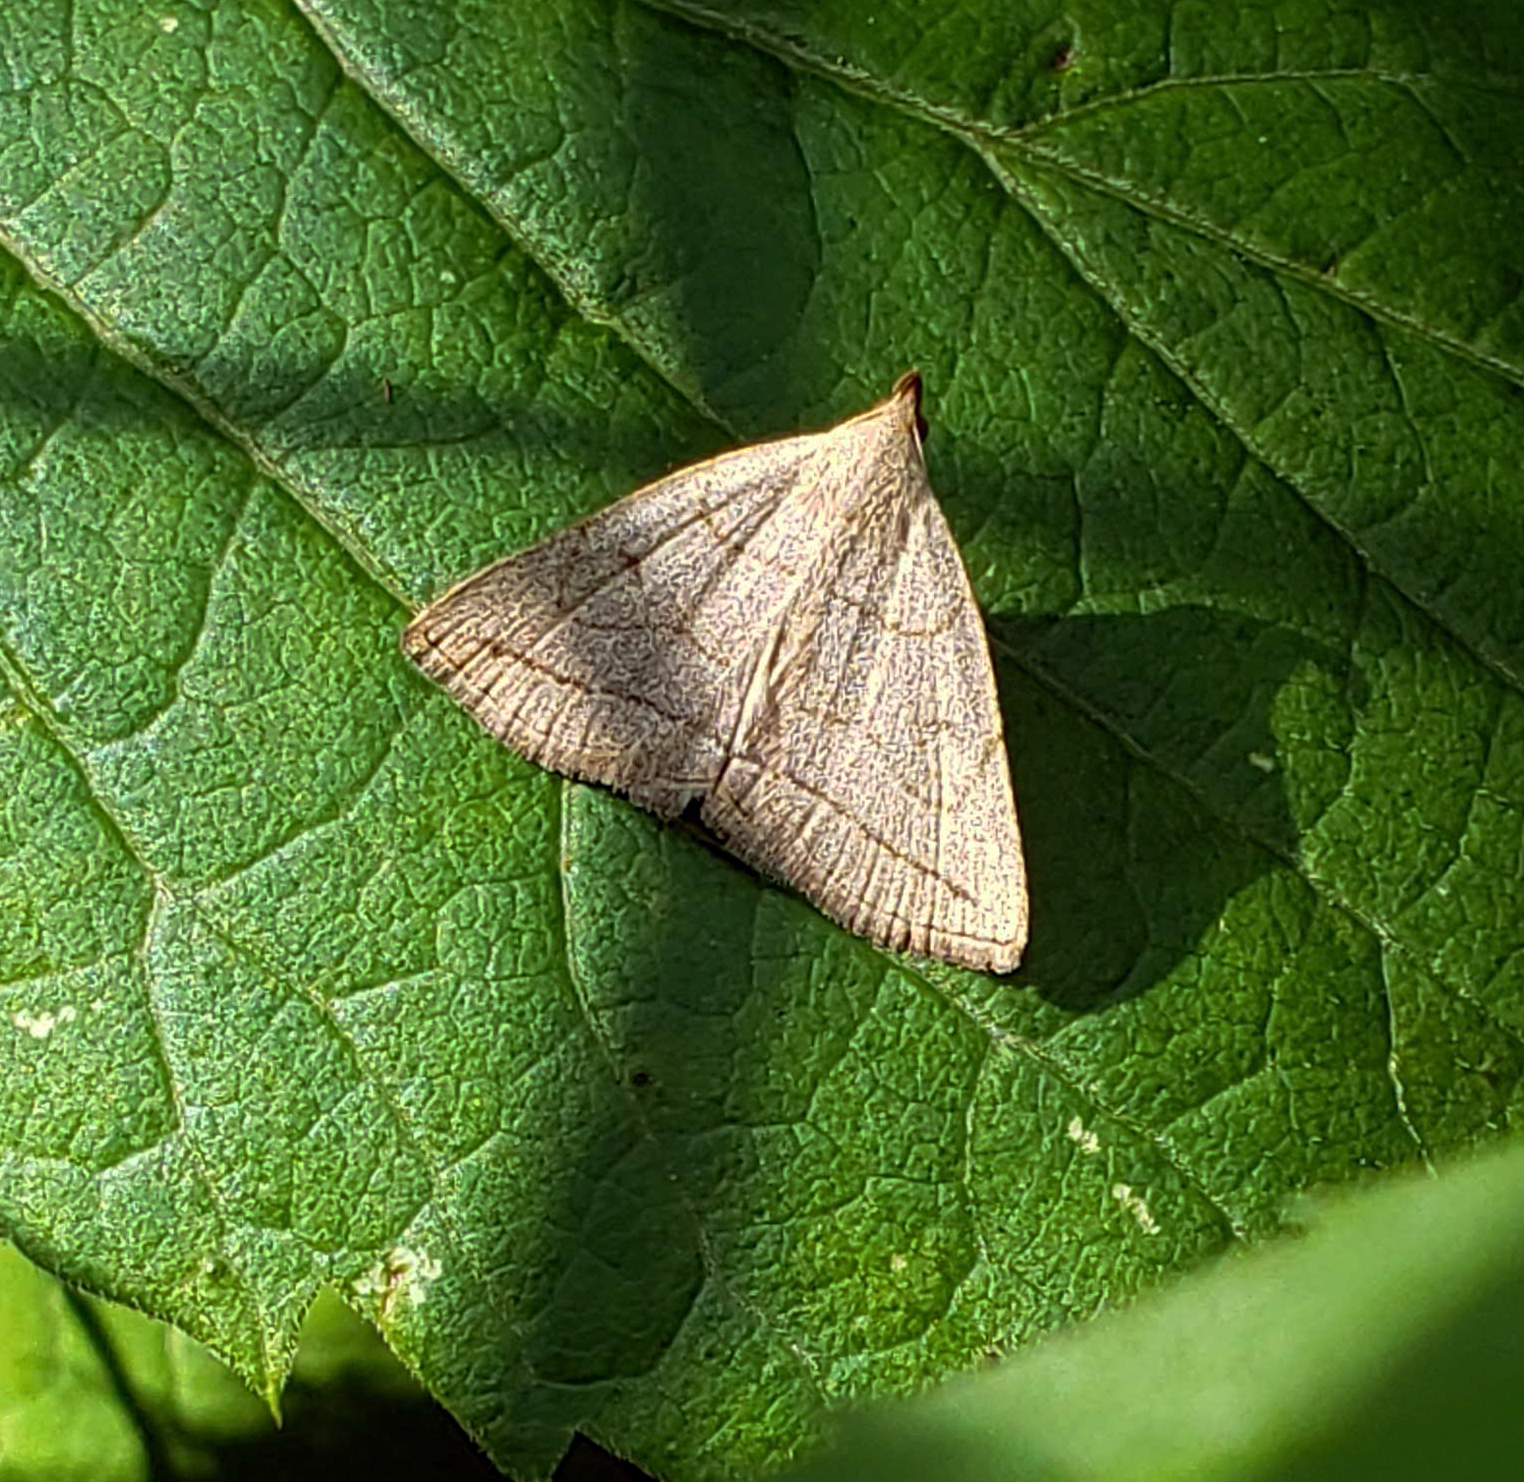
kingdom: Animalia
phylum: Arthropoda
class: Insecta
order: Lepidoptera
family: Erebidae
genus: Zanclognatha
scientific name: Zanclognatha pedipilalis
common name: Grayish fan-foot
